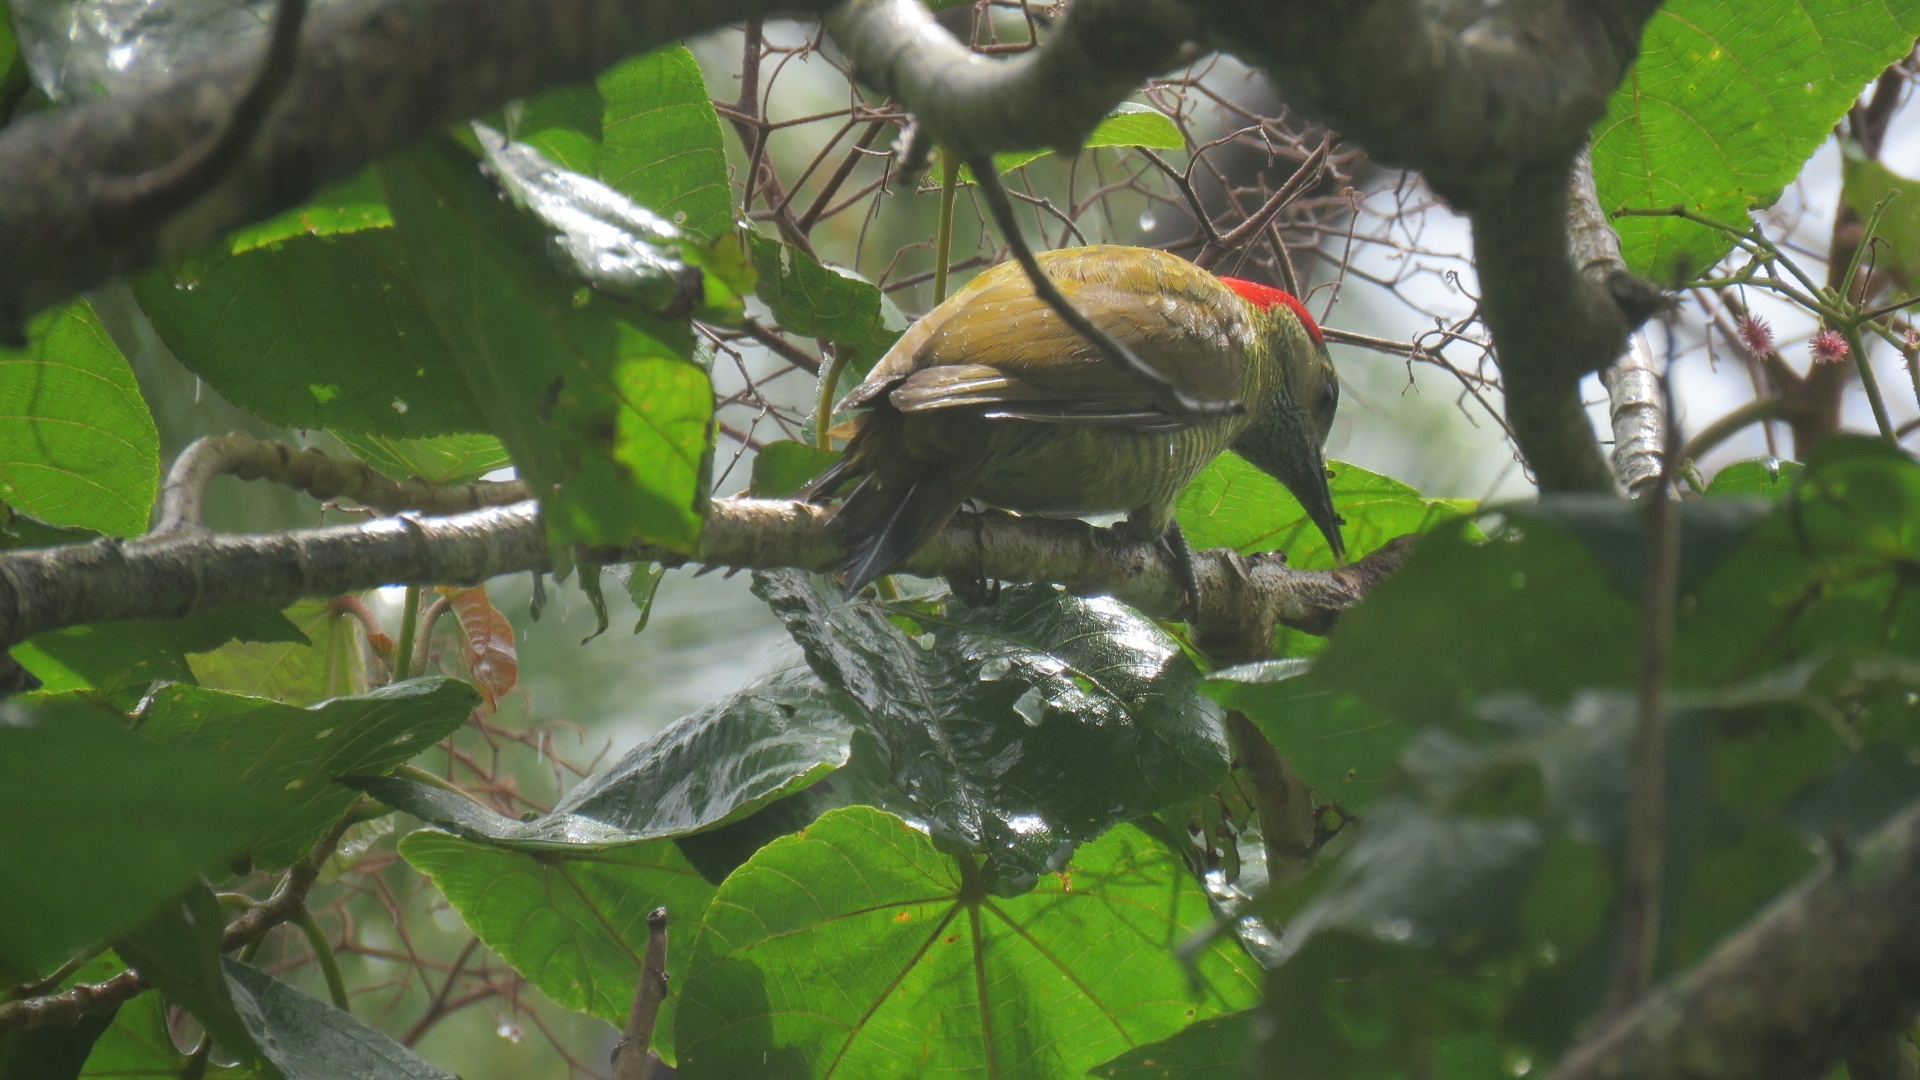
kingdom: Animalia
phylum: Chordata
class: Aves
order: Piciformes
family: Picidae
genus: Colaptes
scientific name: Colaptes rubiginosus
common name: Golden-olive woodpecker
